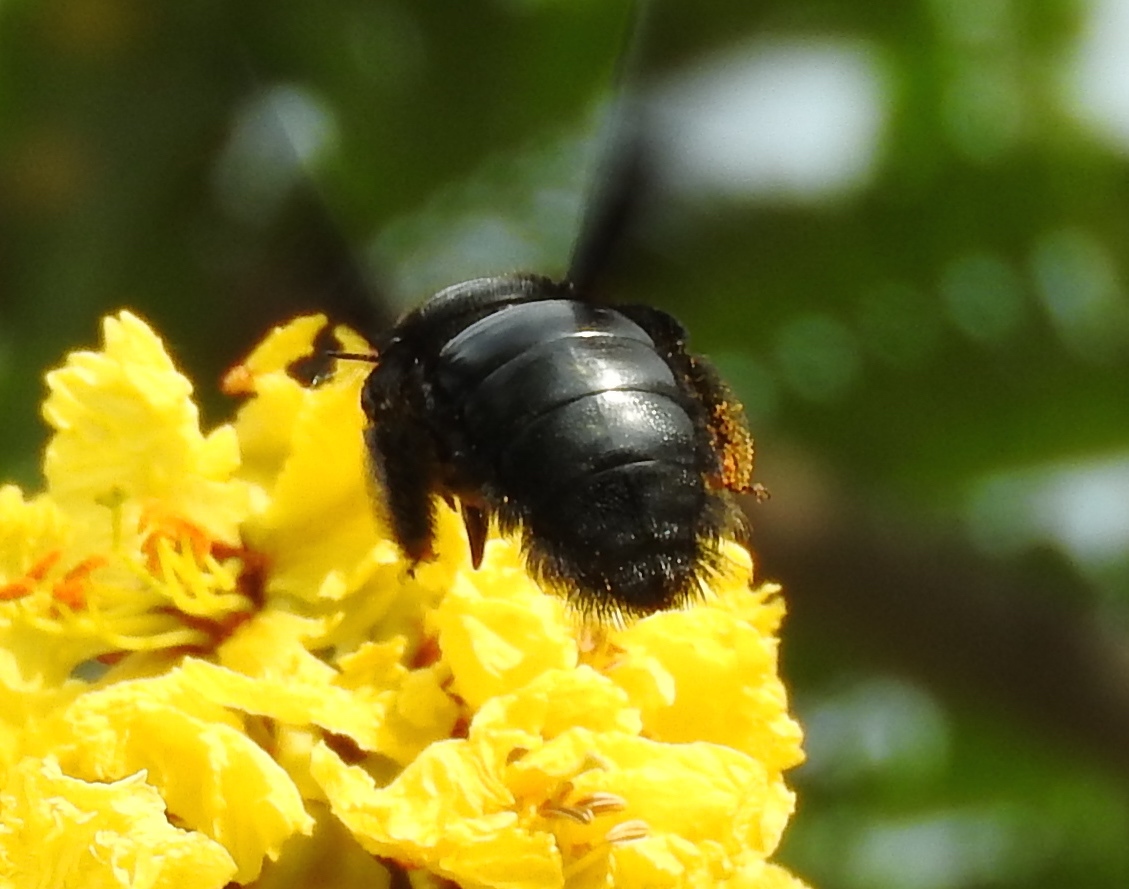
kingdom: Animalia
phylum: Arthropoda
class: Insecta
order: Hymenoptera
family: Apidae
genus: Xylocopa
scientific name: Xylocopa fimbriata
